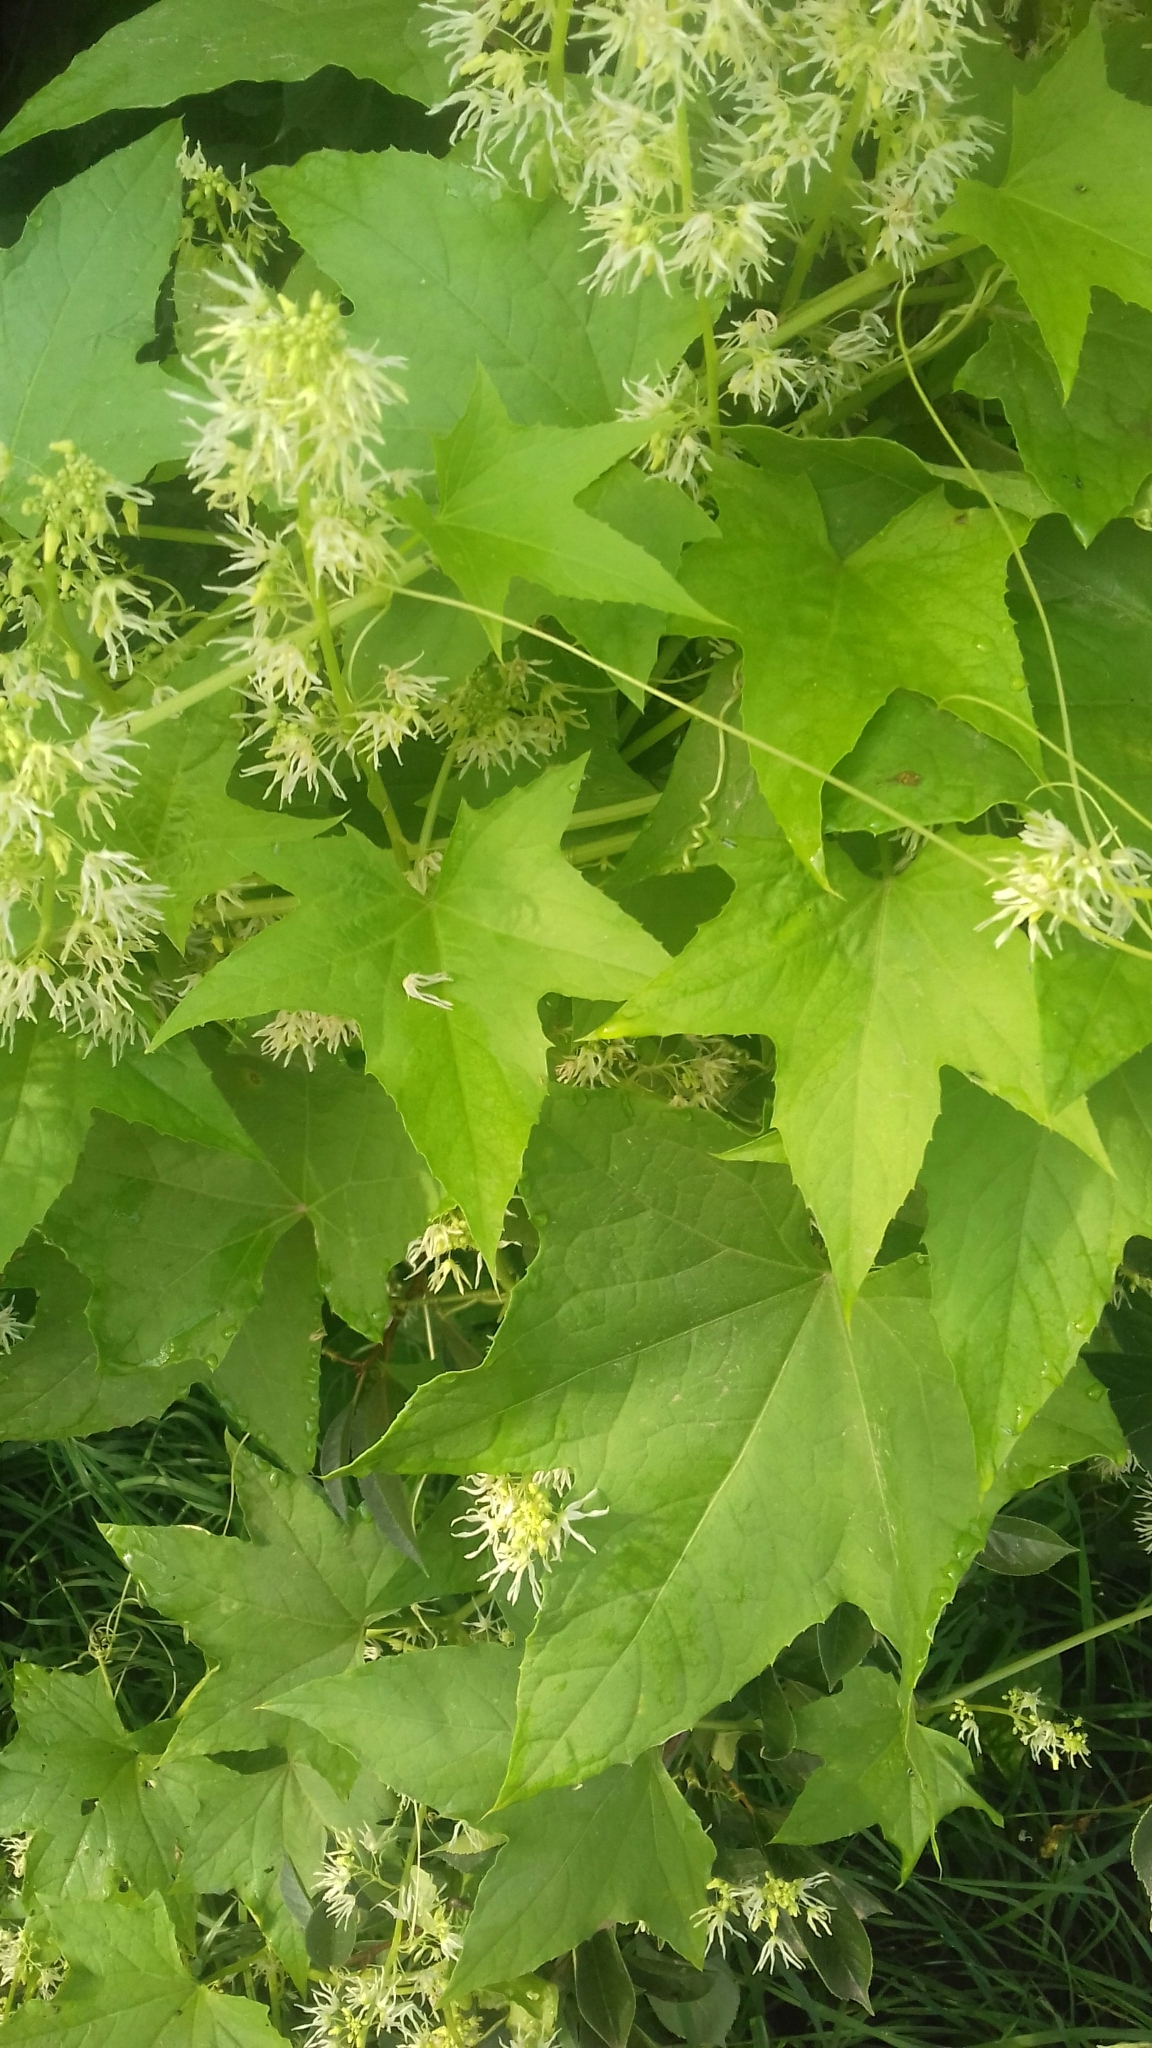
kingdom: Plantae
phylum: Tracheophyta
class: Magnoliopsida
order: Cucurbitales
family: Cucurbitaceae
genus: Echinocystis
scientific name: Echinocystis lobata
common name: Wild cucumber
